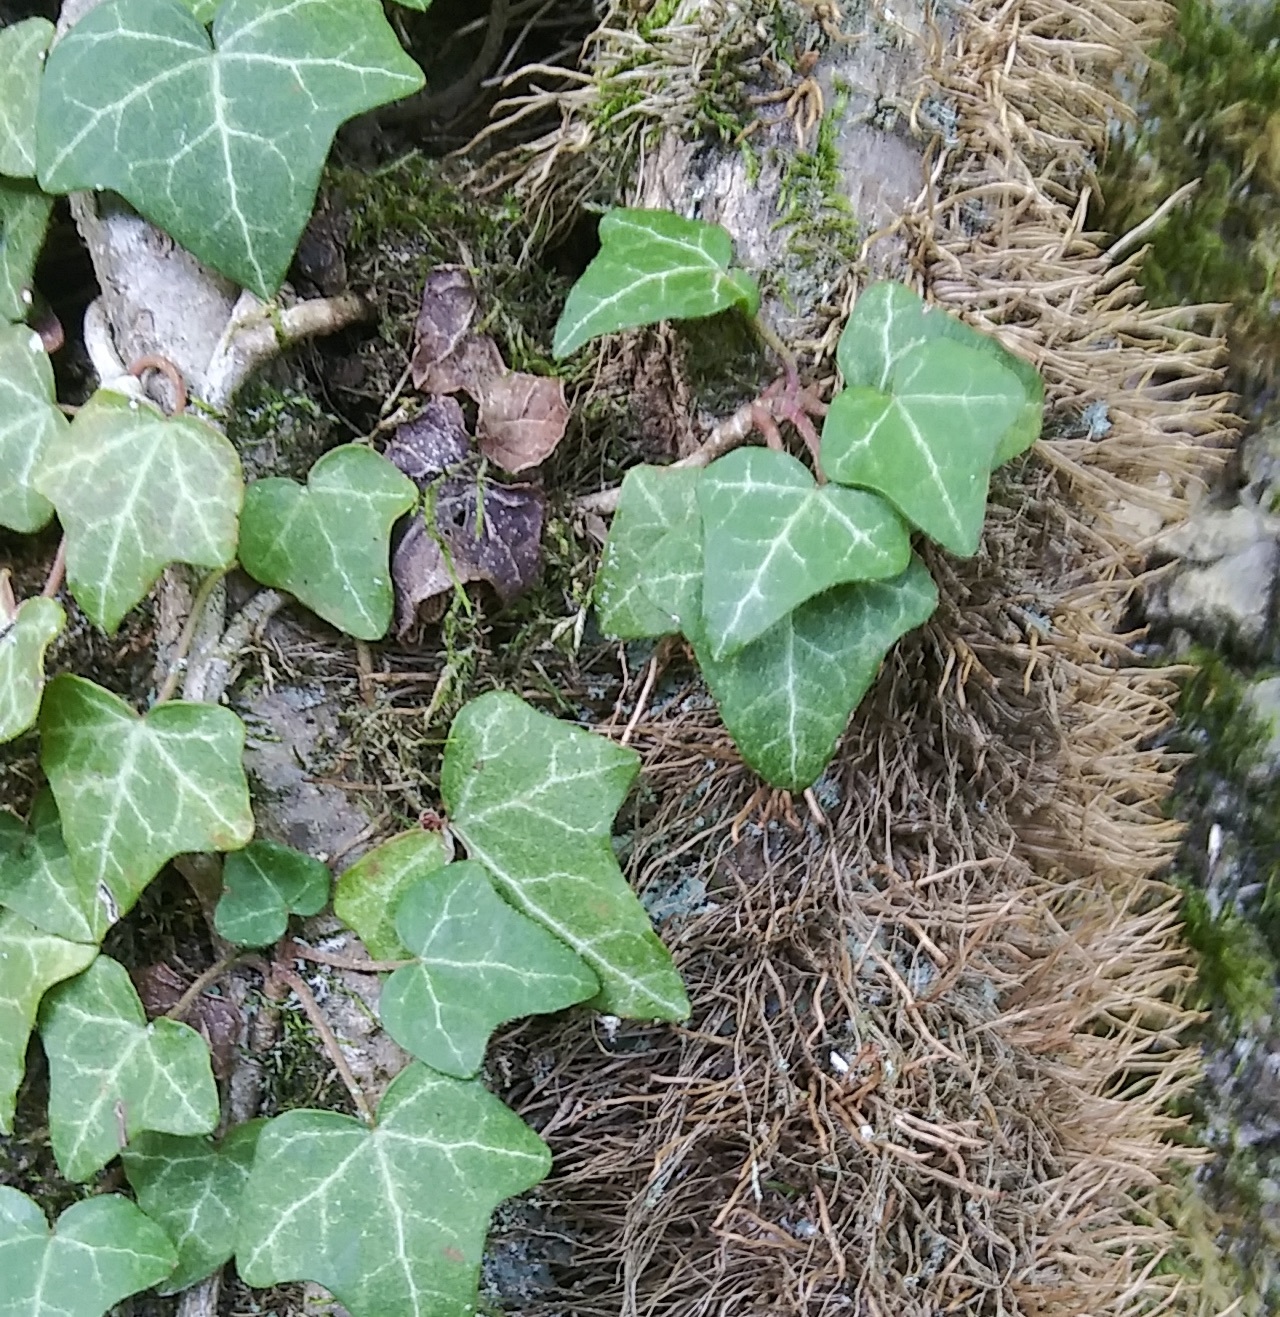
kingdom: Plantae
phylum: Tracheophyta
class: Magnoliopsida
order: Apiales
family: Araliaceae
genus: Hedera
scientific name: Hedera helix
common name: Ivy
